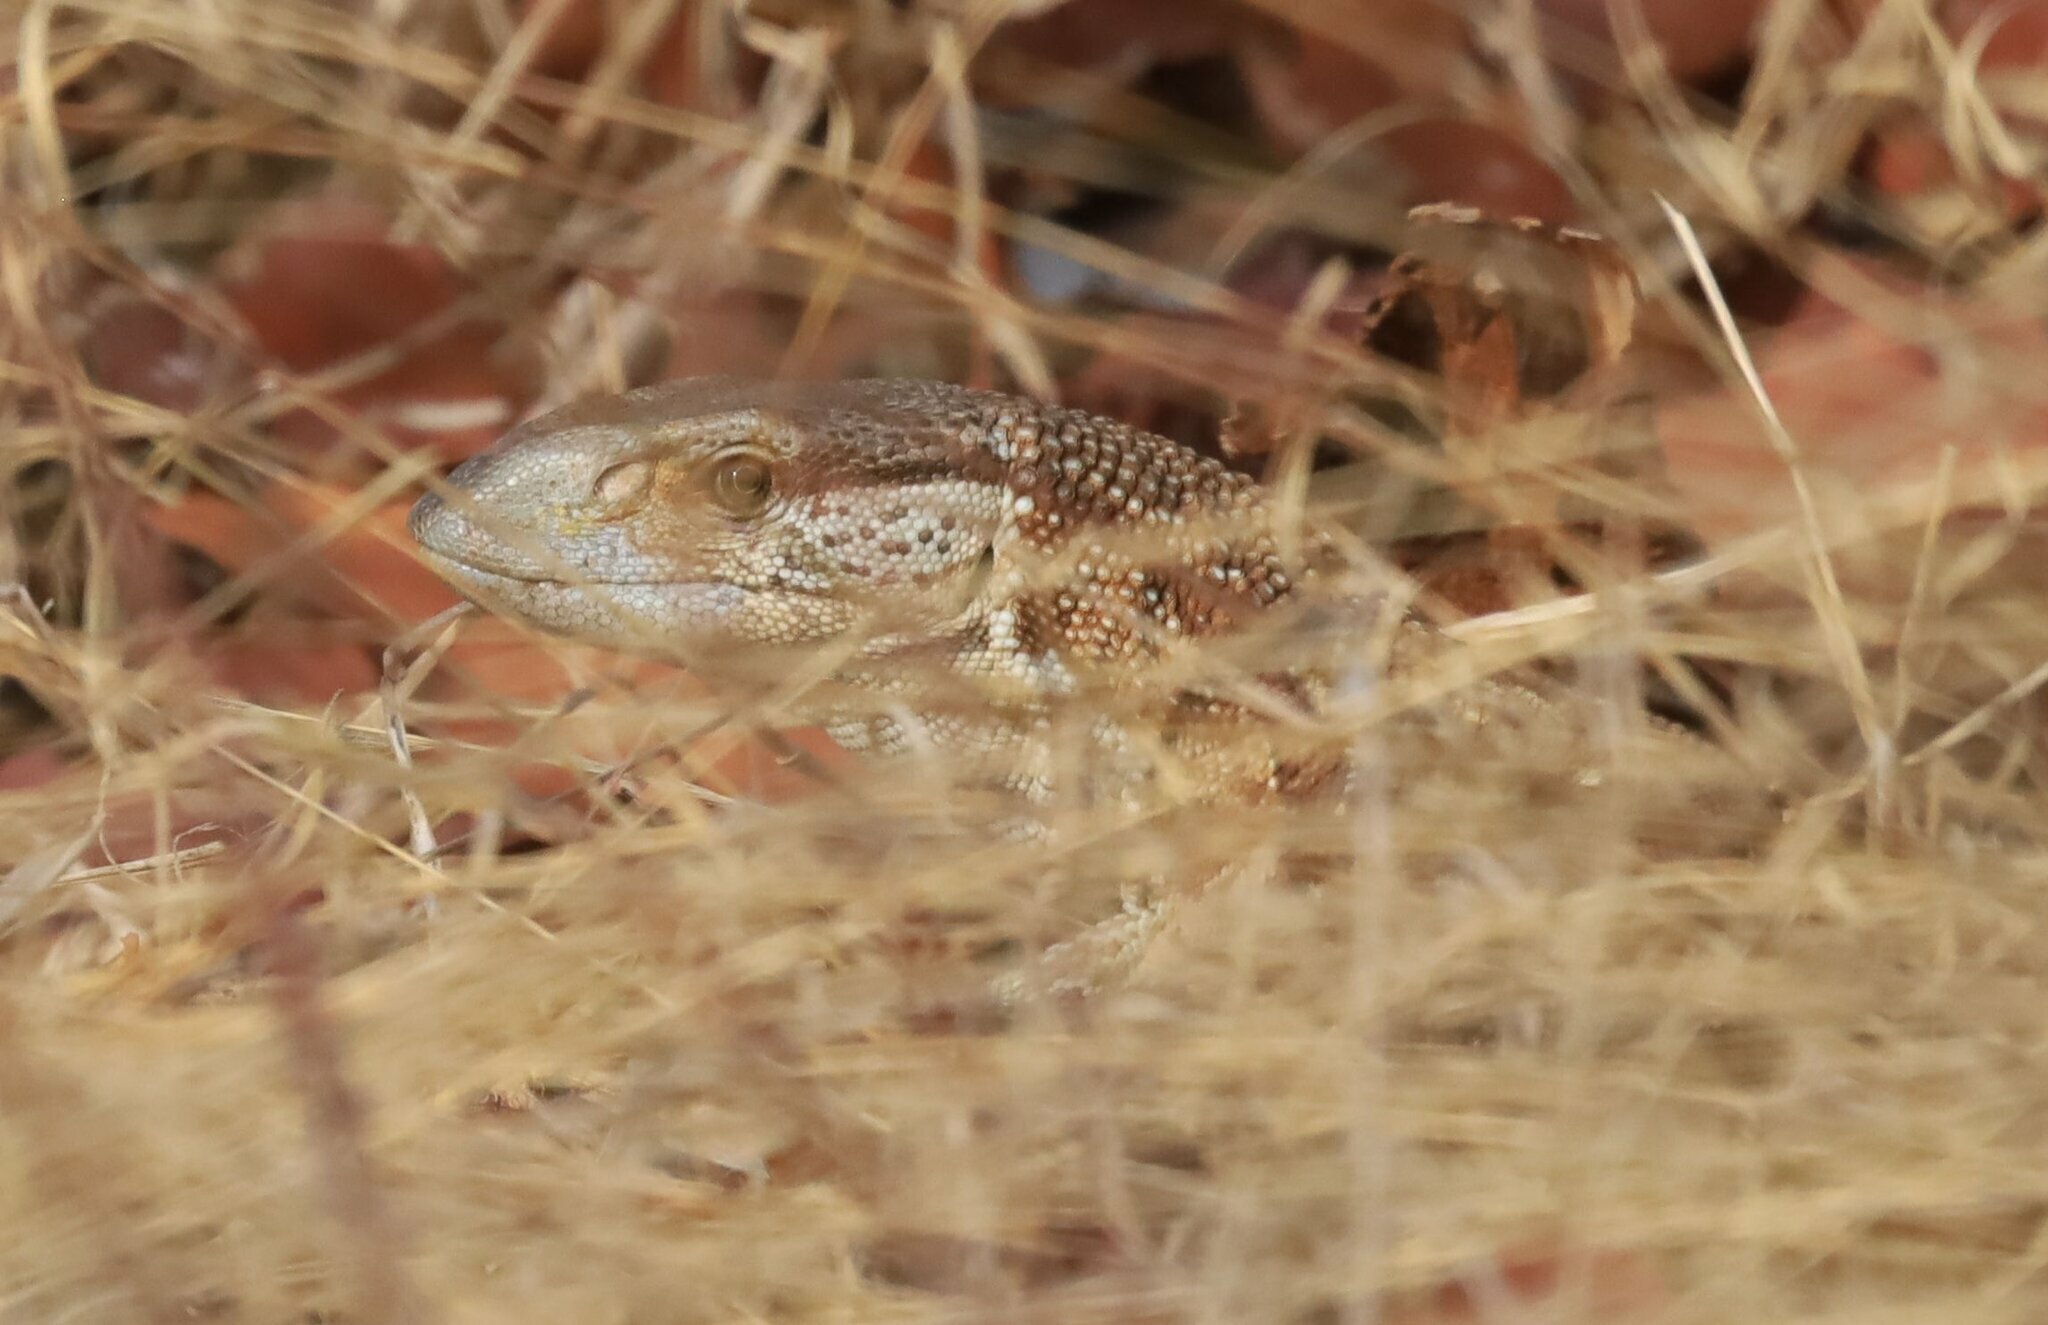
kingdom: Animalia
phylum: Chordata
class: Squamata
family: Varanidae
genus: Varanus
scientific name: Varanus albigularis
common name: White-throated monitor
